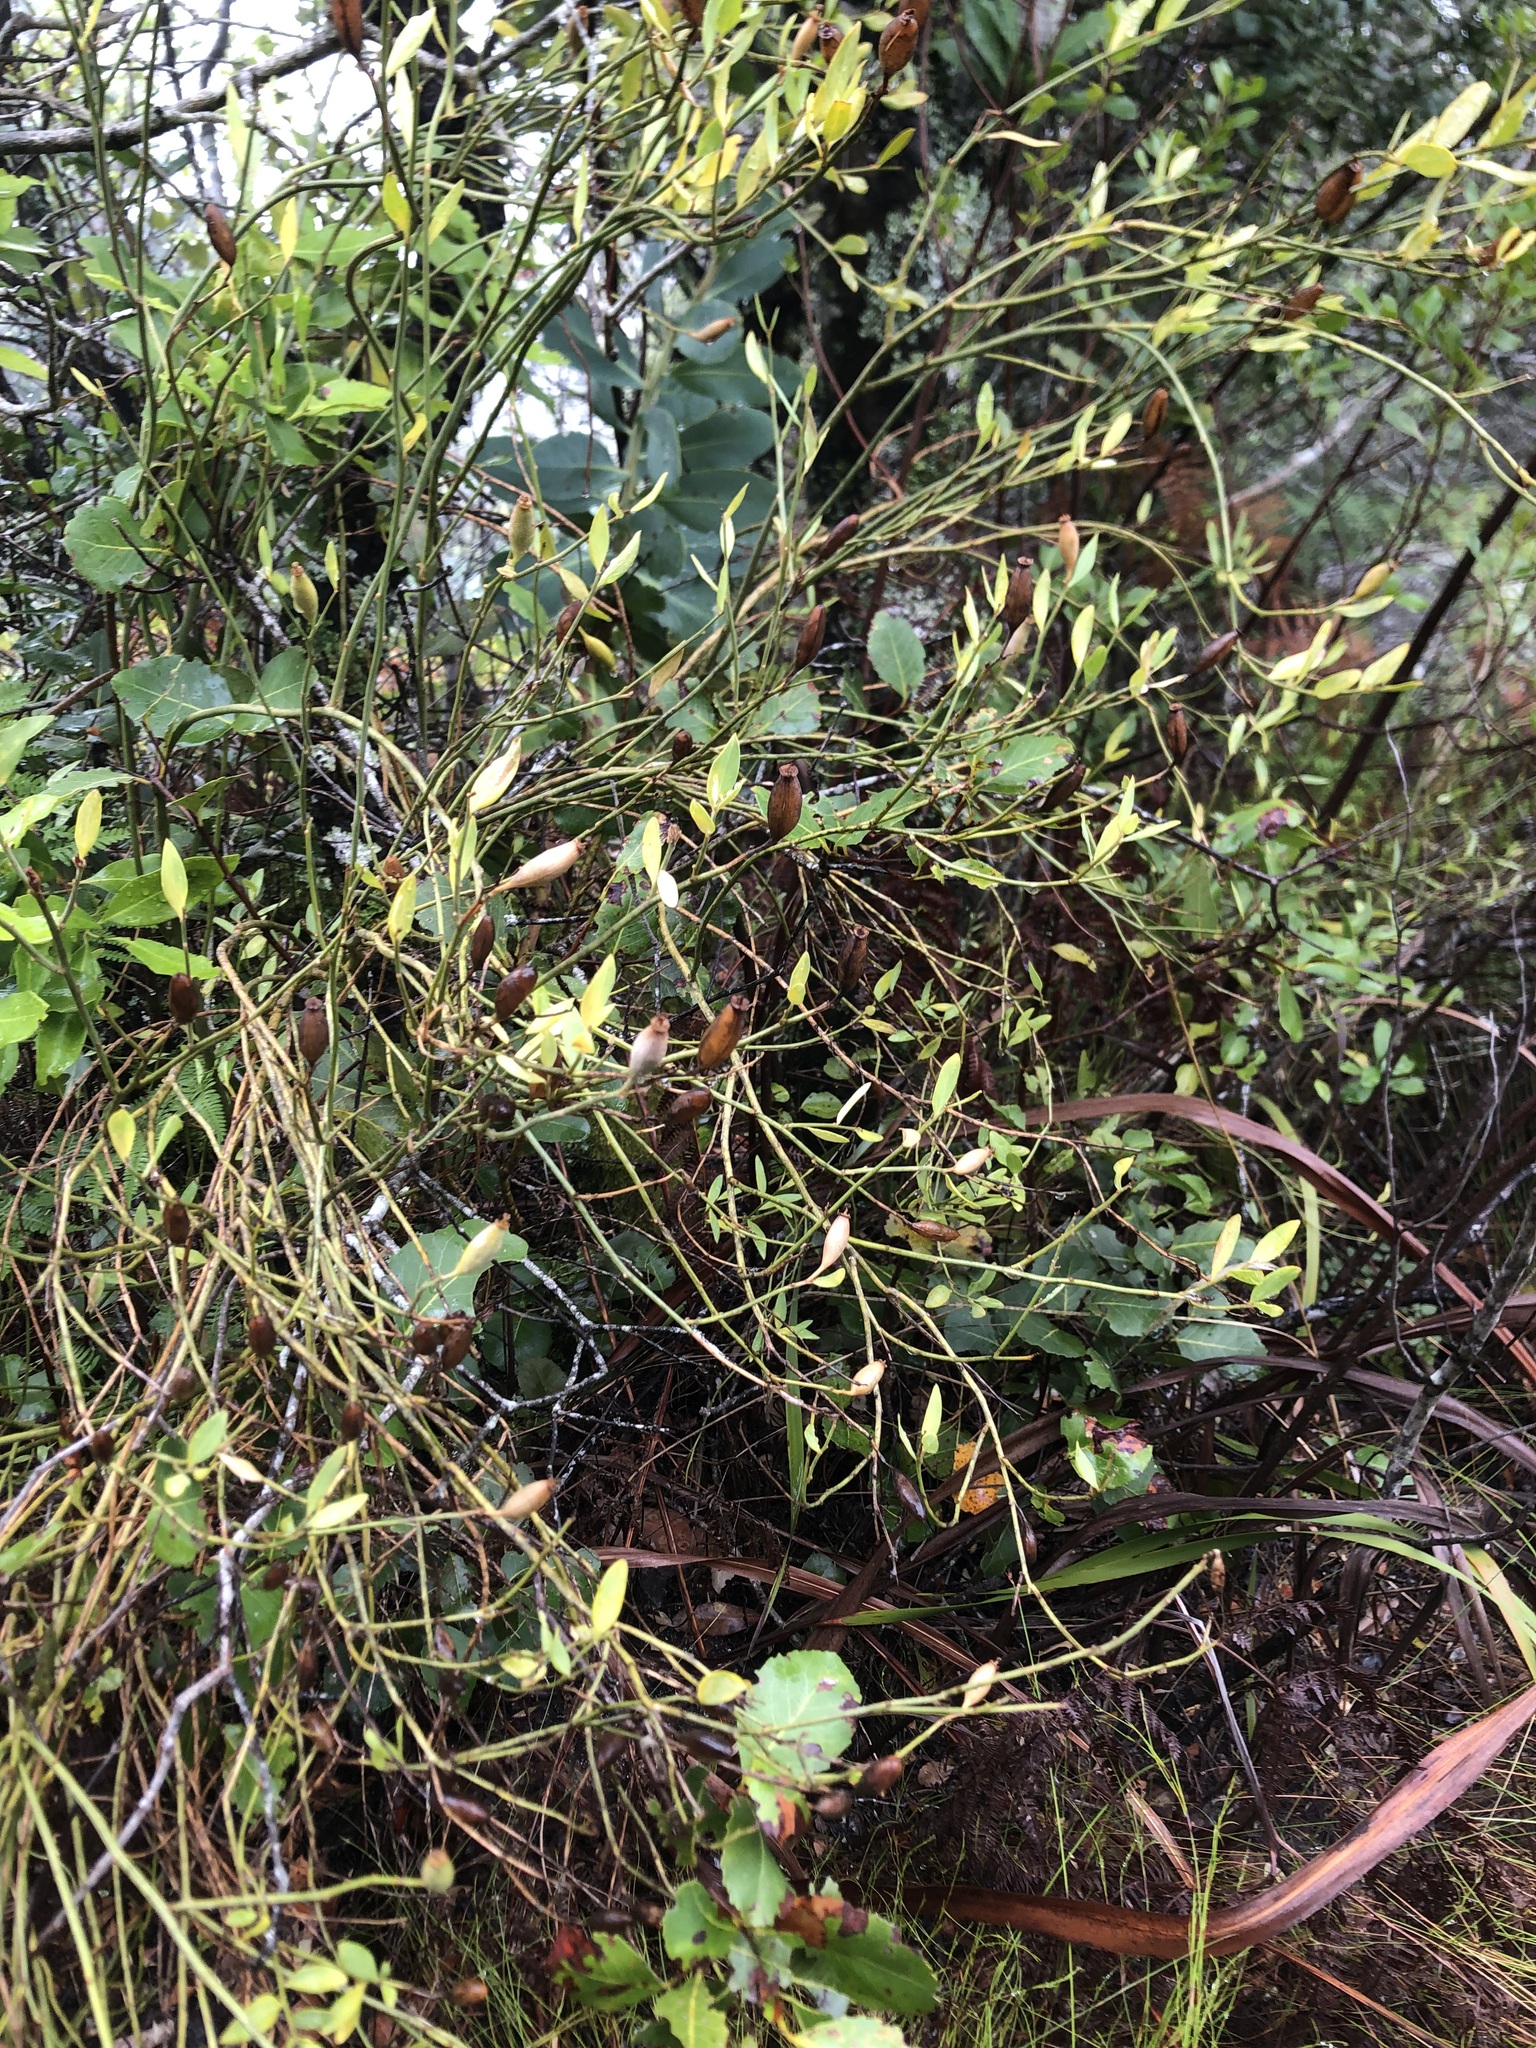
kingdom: Plantae
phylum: Tracheophyta
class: Magnoliopsida
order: Solanales
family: Montiniaceae
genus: Montinia
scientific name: Montinia caryophyllacea
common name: Wild clove-bush
